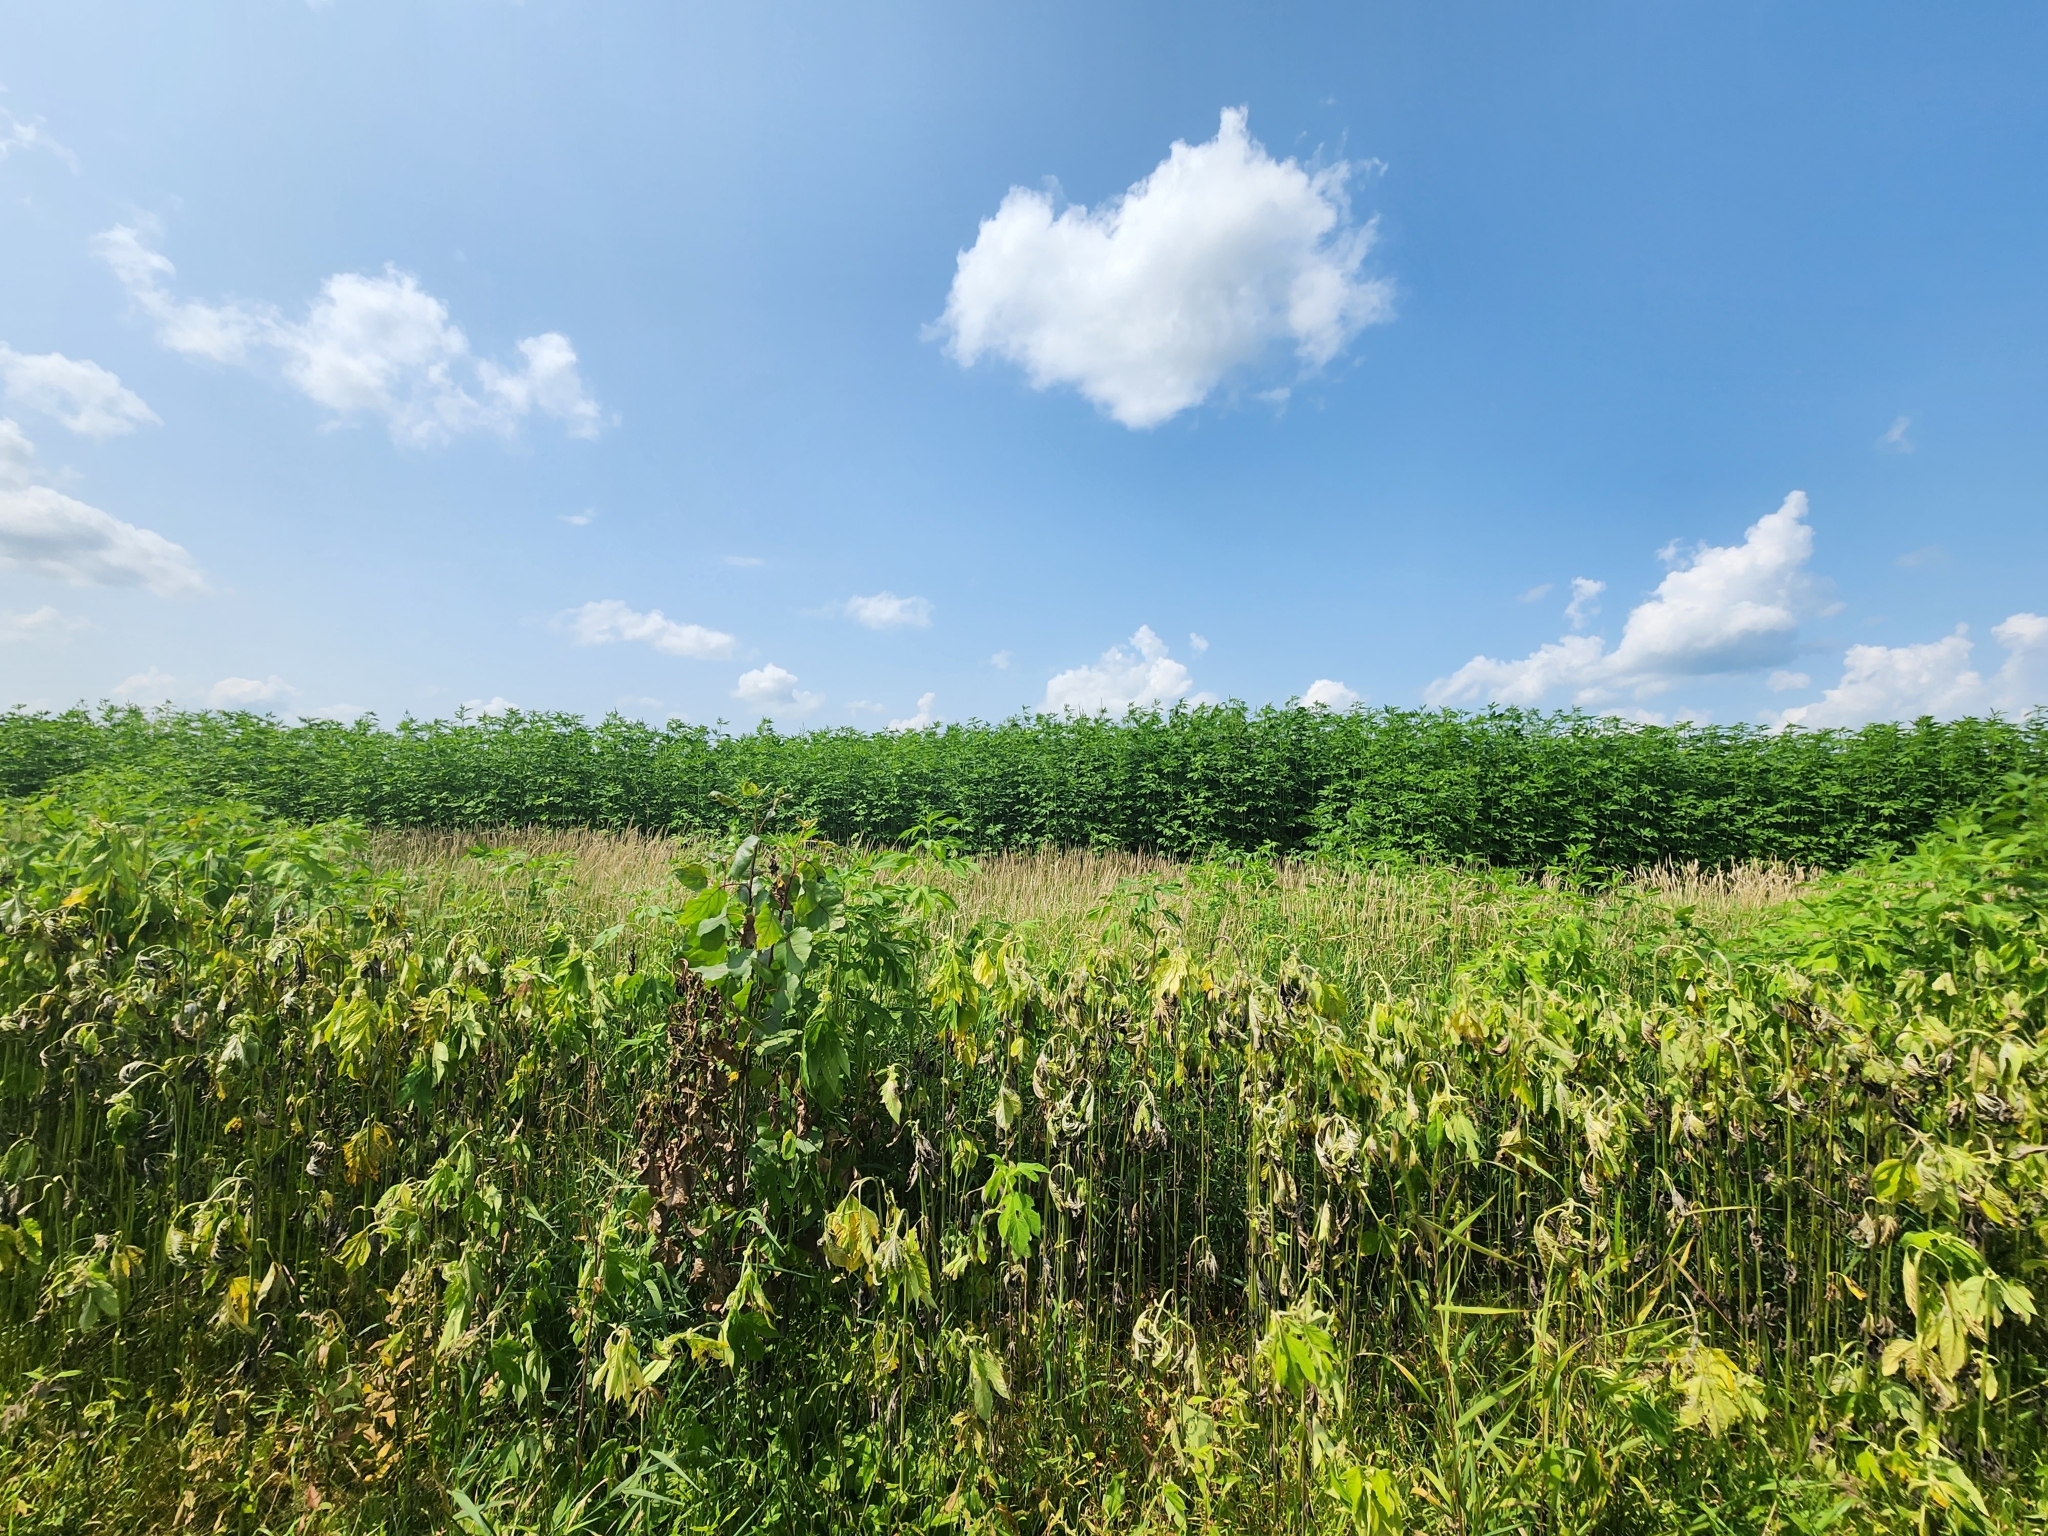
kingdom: Plantae
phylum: Tracheophyta
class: Magnoliopsida
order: Asterales
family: Asteraceae
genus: Ambrosia
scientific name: Ambrosia trifida
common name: Giant ragweed
